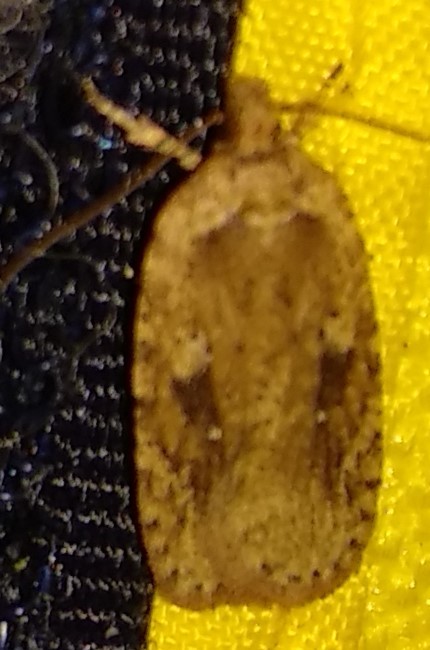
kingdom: Animalia
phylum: Arthropoda
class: Insecta
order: Lepidoptera
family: Depressariidae
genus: Agonopterix
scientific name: Agonopterix pulvipennella
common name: Goldenrod leafffolder
